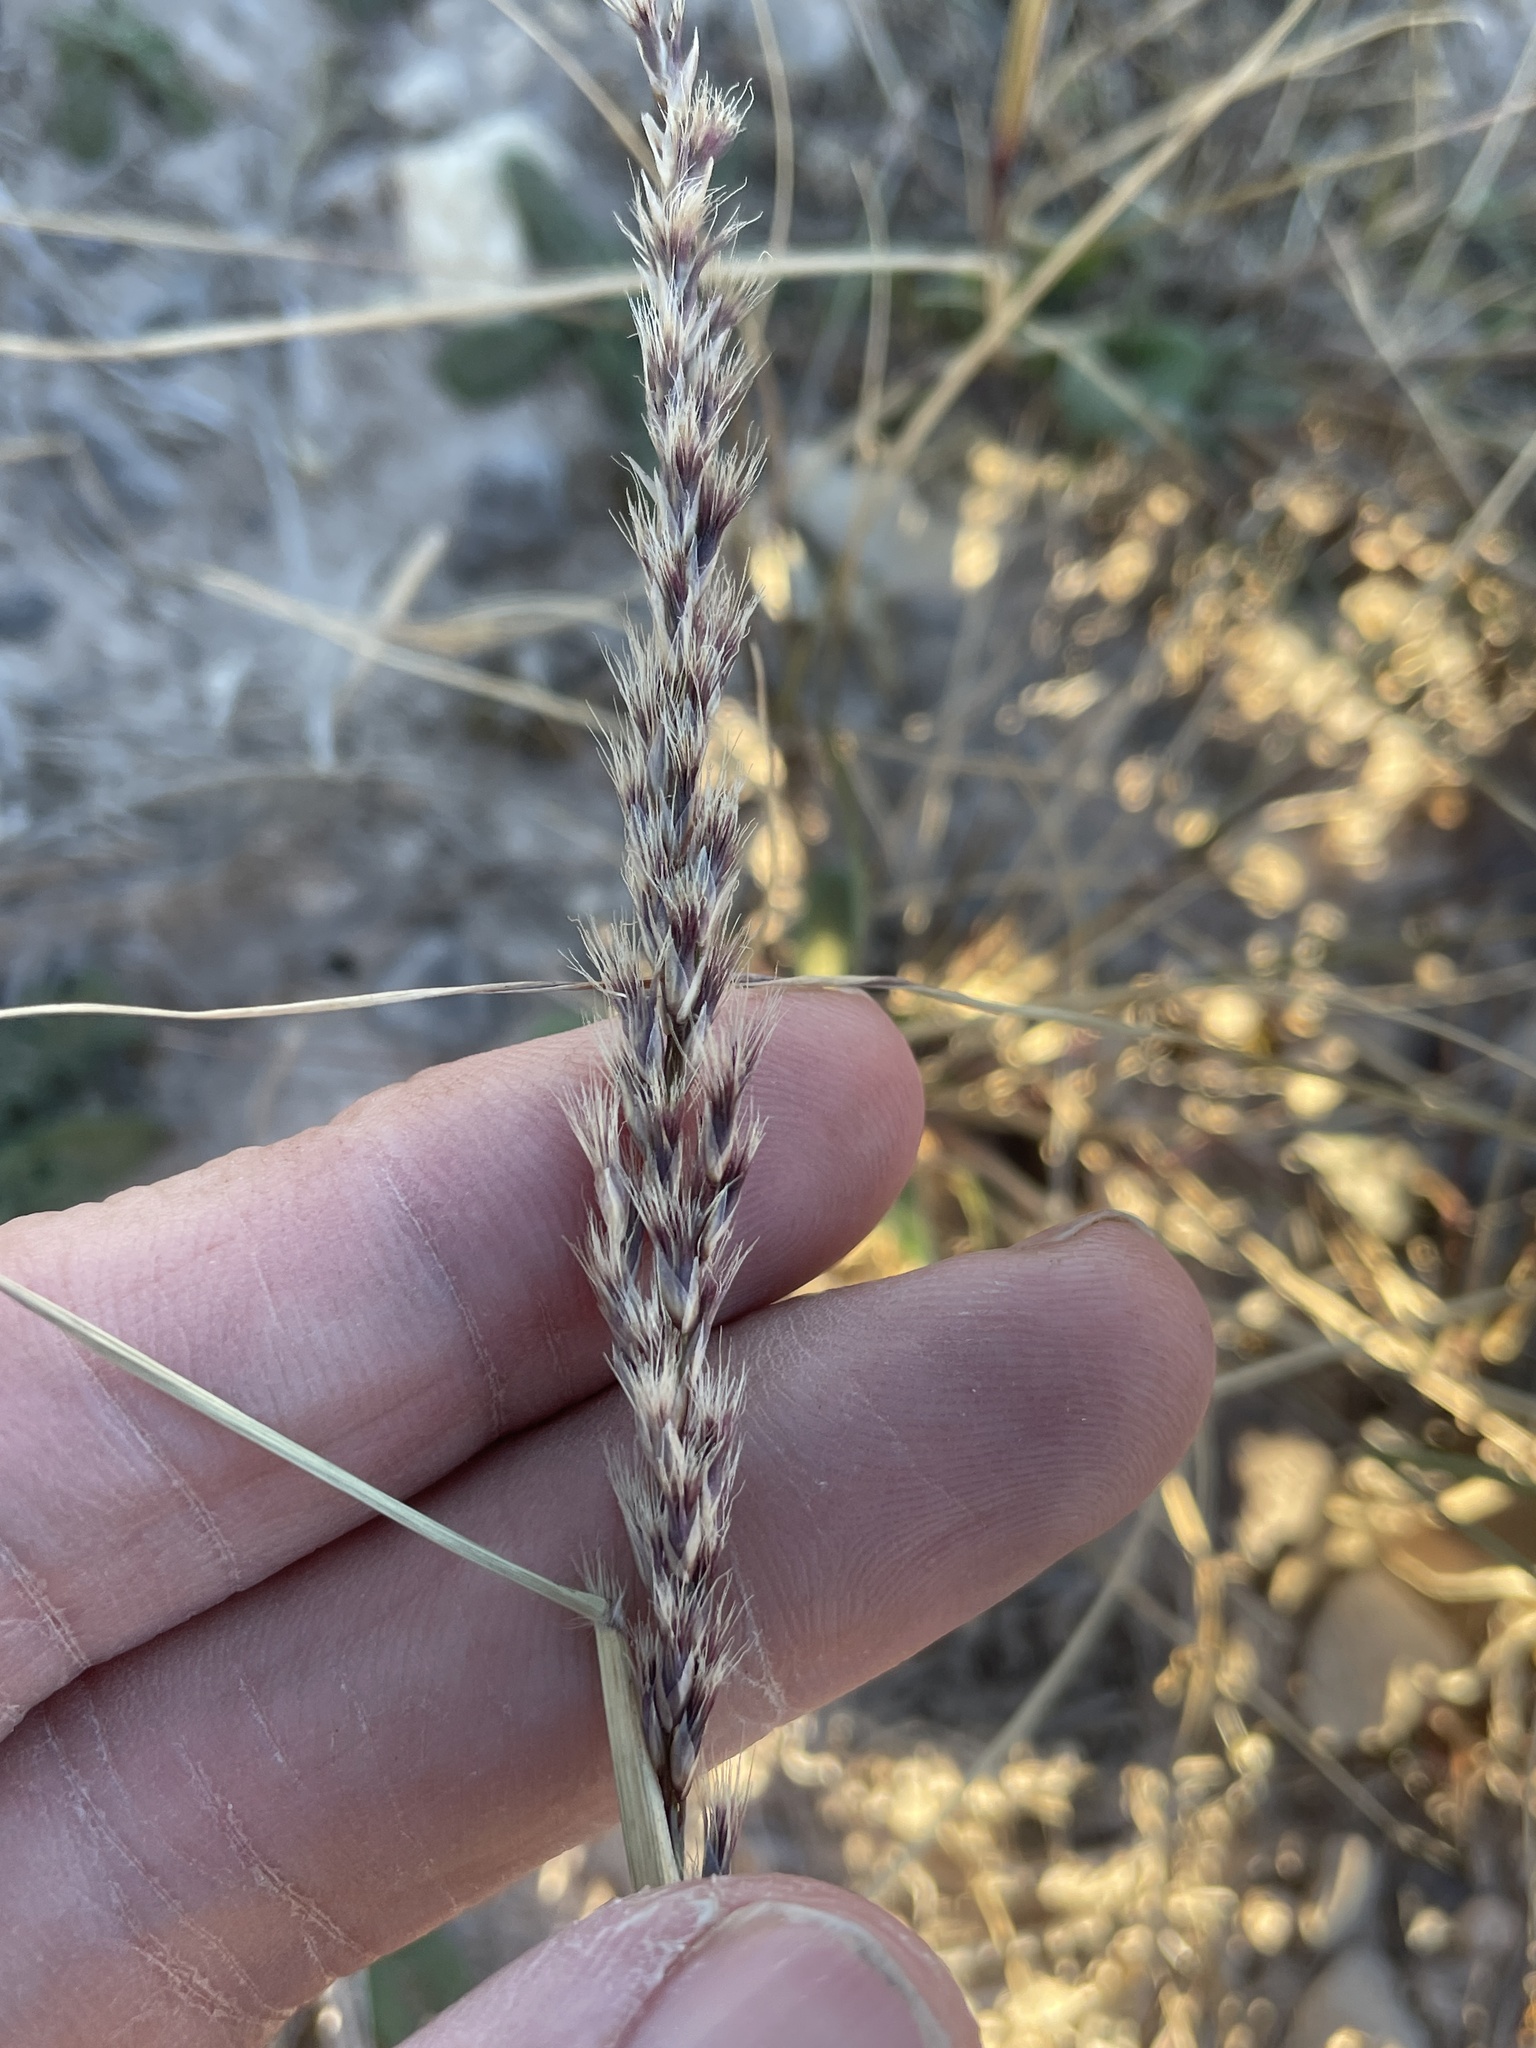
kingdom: Plantae
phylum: Tracheophyta
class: Liliopsida
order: Poales
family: Poaceae
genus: Pappophorum
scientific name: Pappophorum bicolor
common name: Pink pappus grass
